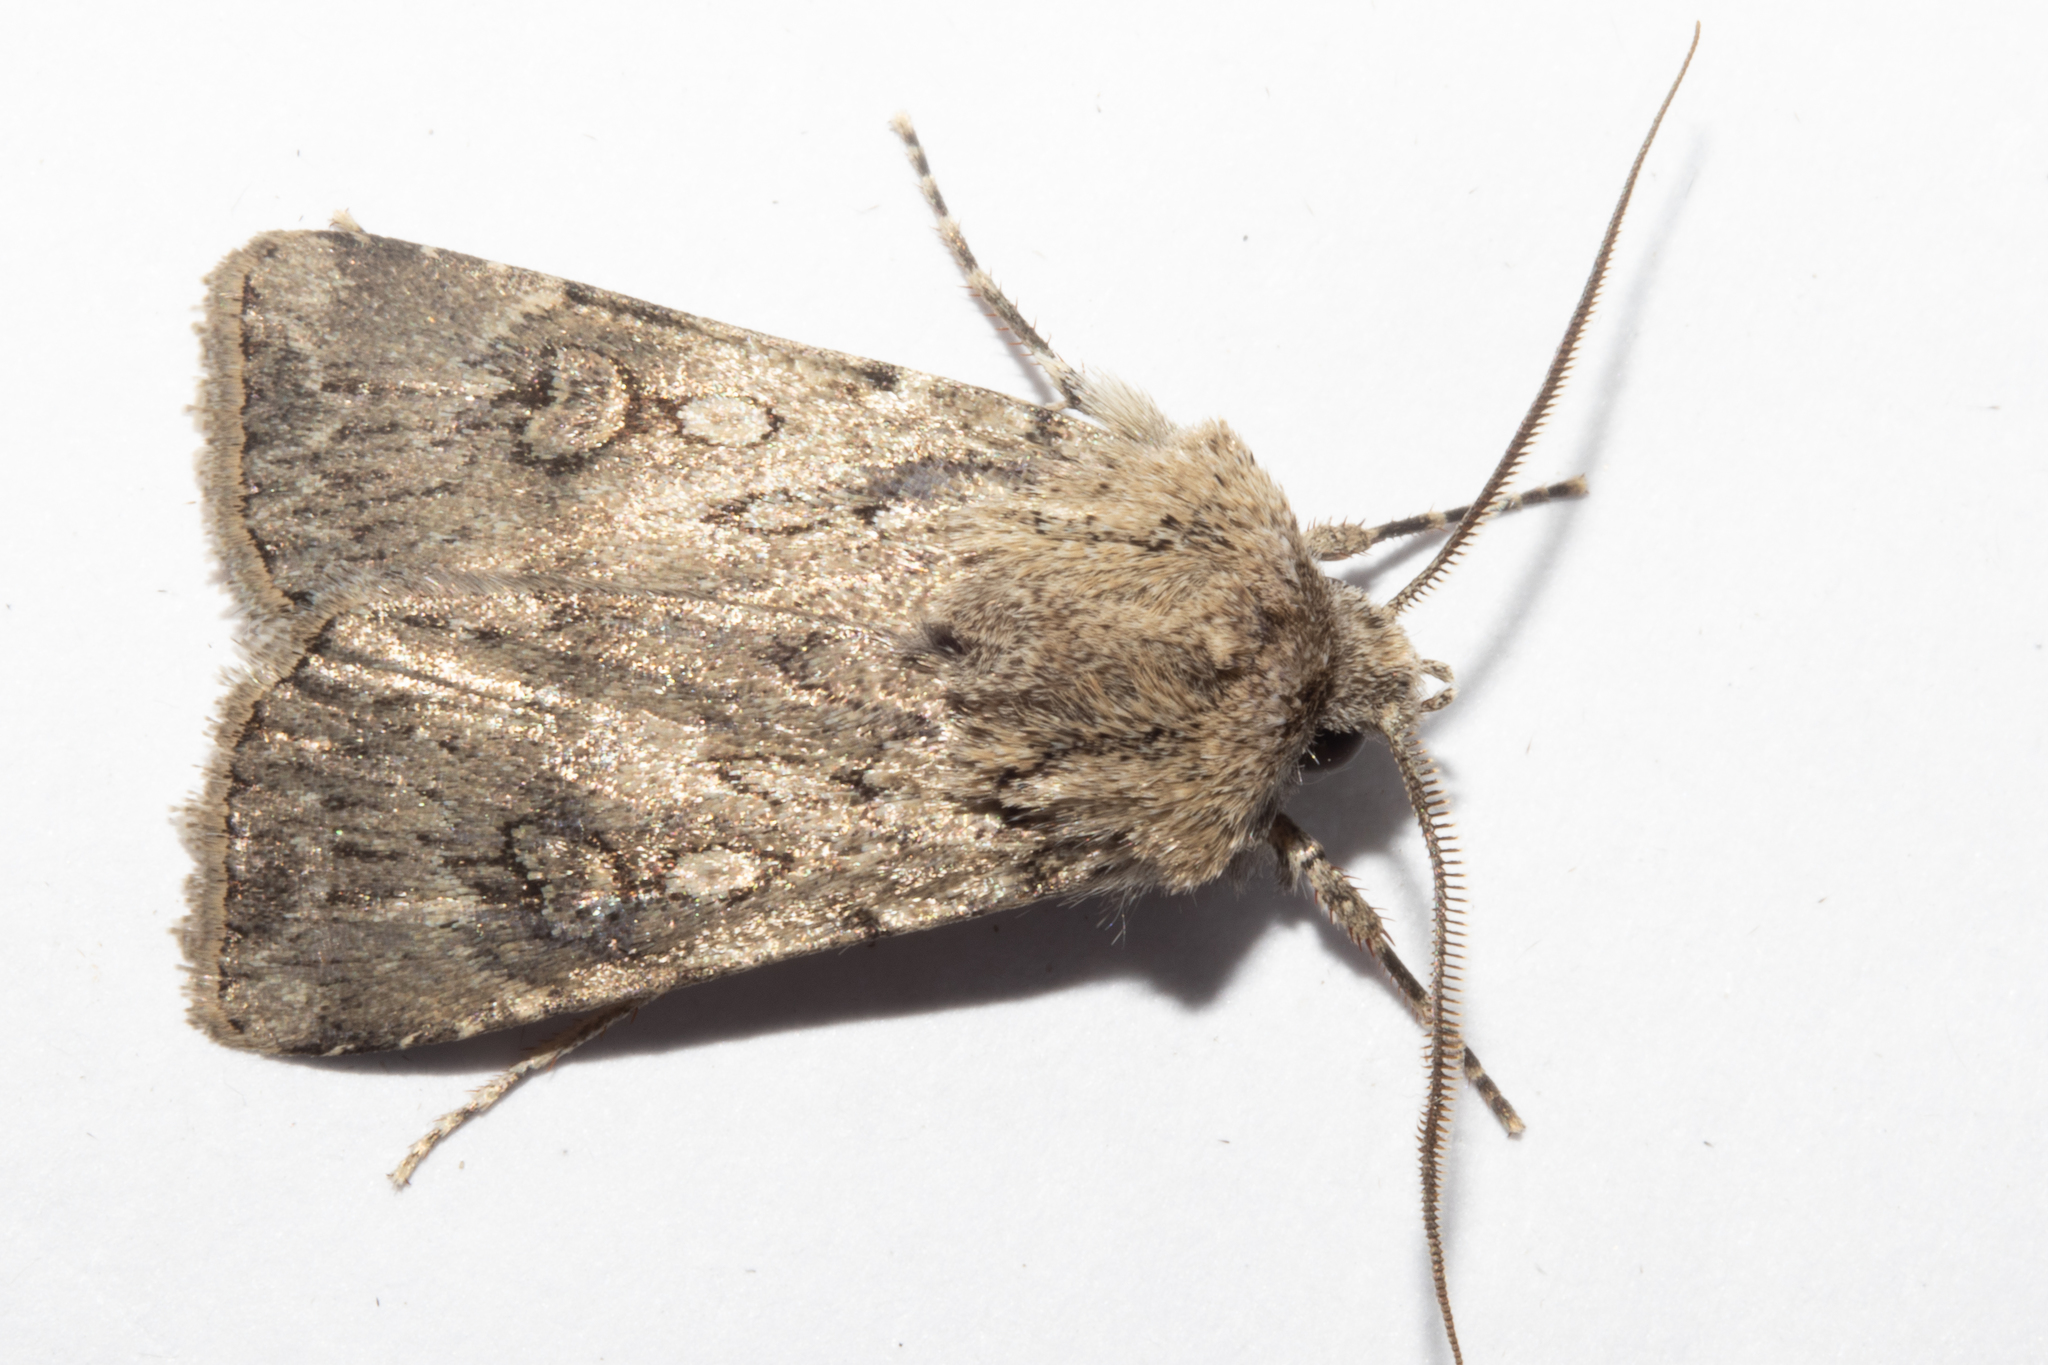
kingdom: Animalia
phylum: Arthropoda
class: Insecta
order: Lepidoptera
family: Noctuidae
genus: Agrotis
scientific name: Agrotis admirationis
